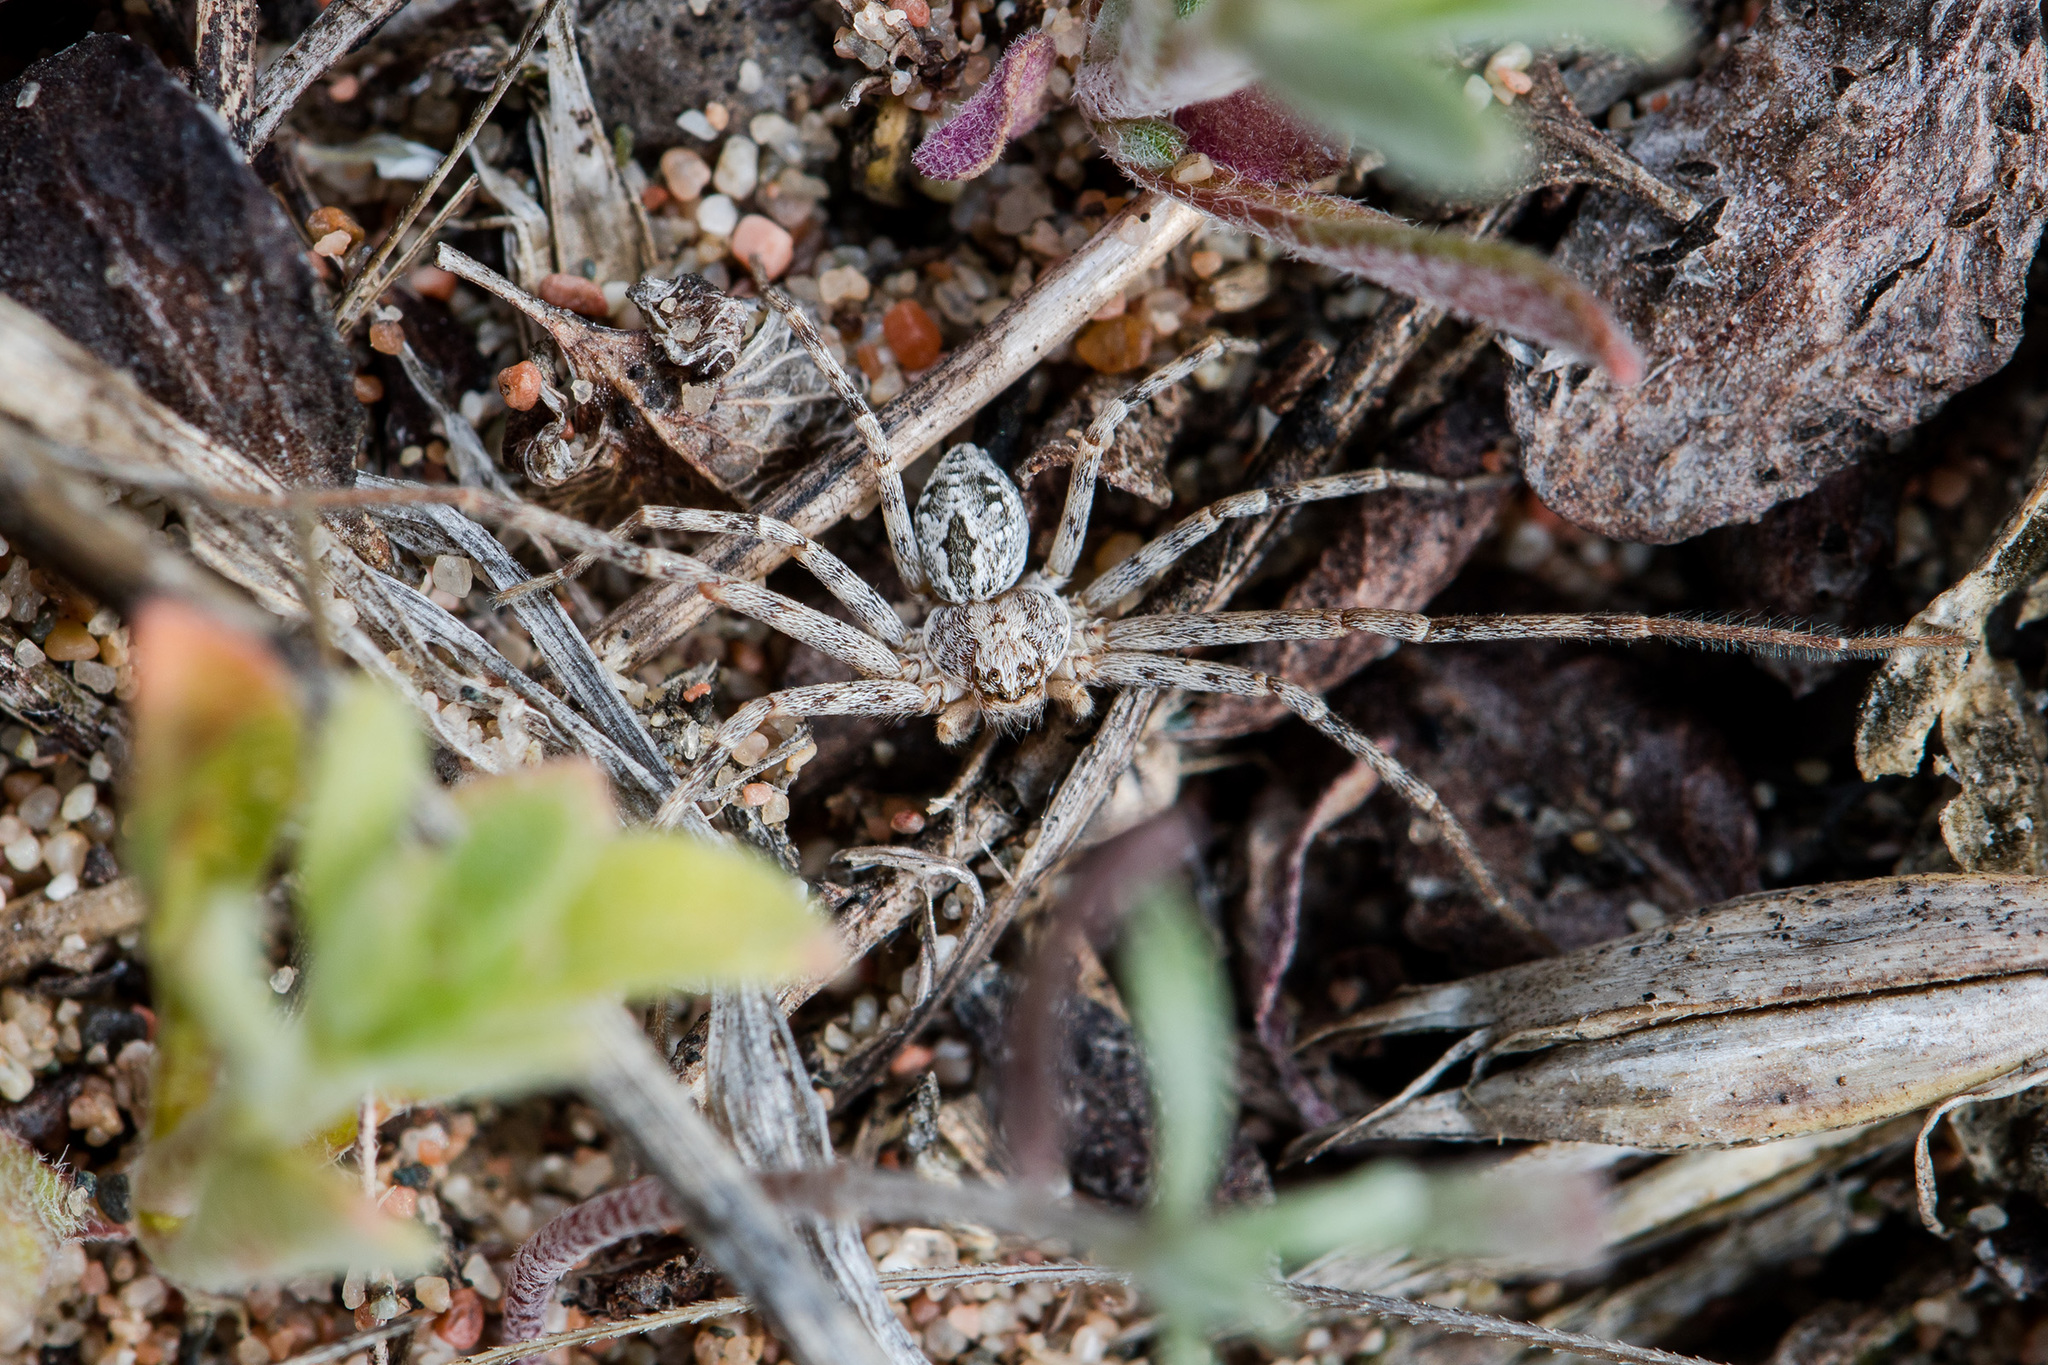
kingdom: Animalia
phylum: Arthropoda
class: Arachnida
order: Araneae
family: Philodromidae
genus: Rhysodromus
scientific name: Rhysodromus fallax
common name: Sand running-spider
